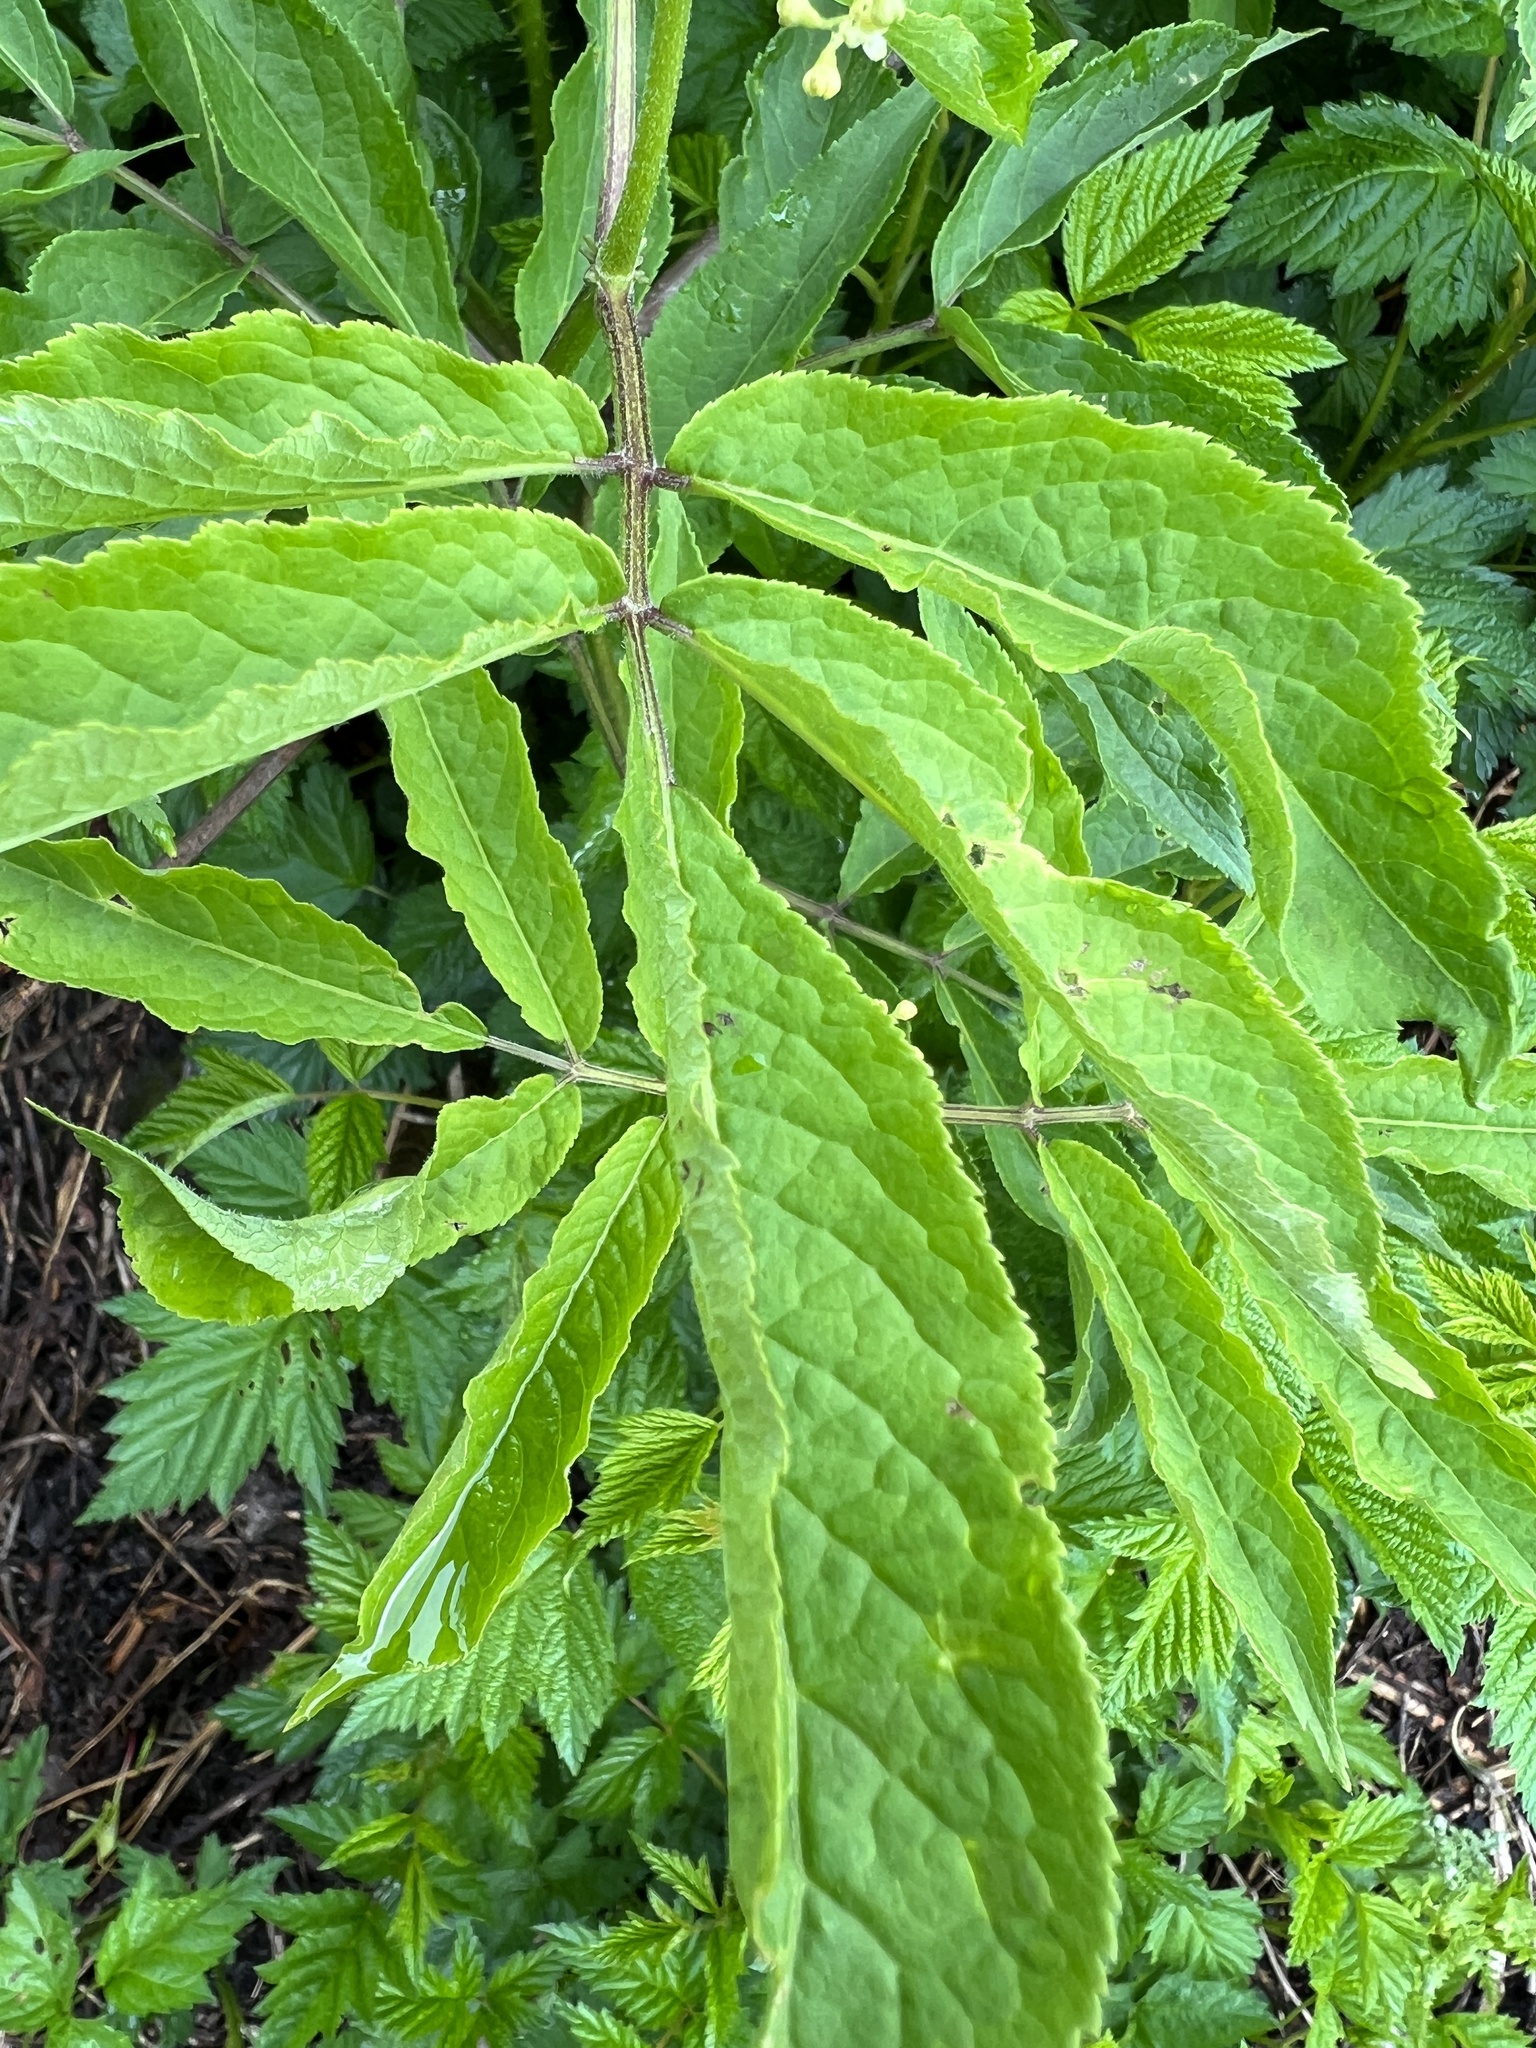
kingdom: Plantae
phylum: Tracheophyta
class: Magnoliopsida
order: Dipsacales
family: Viburnaceae
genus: Sambucus
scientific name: Sambucus racemosa
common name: Red-berried elder
